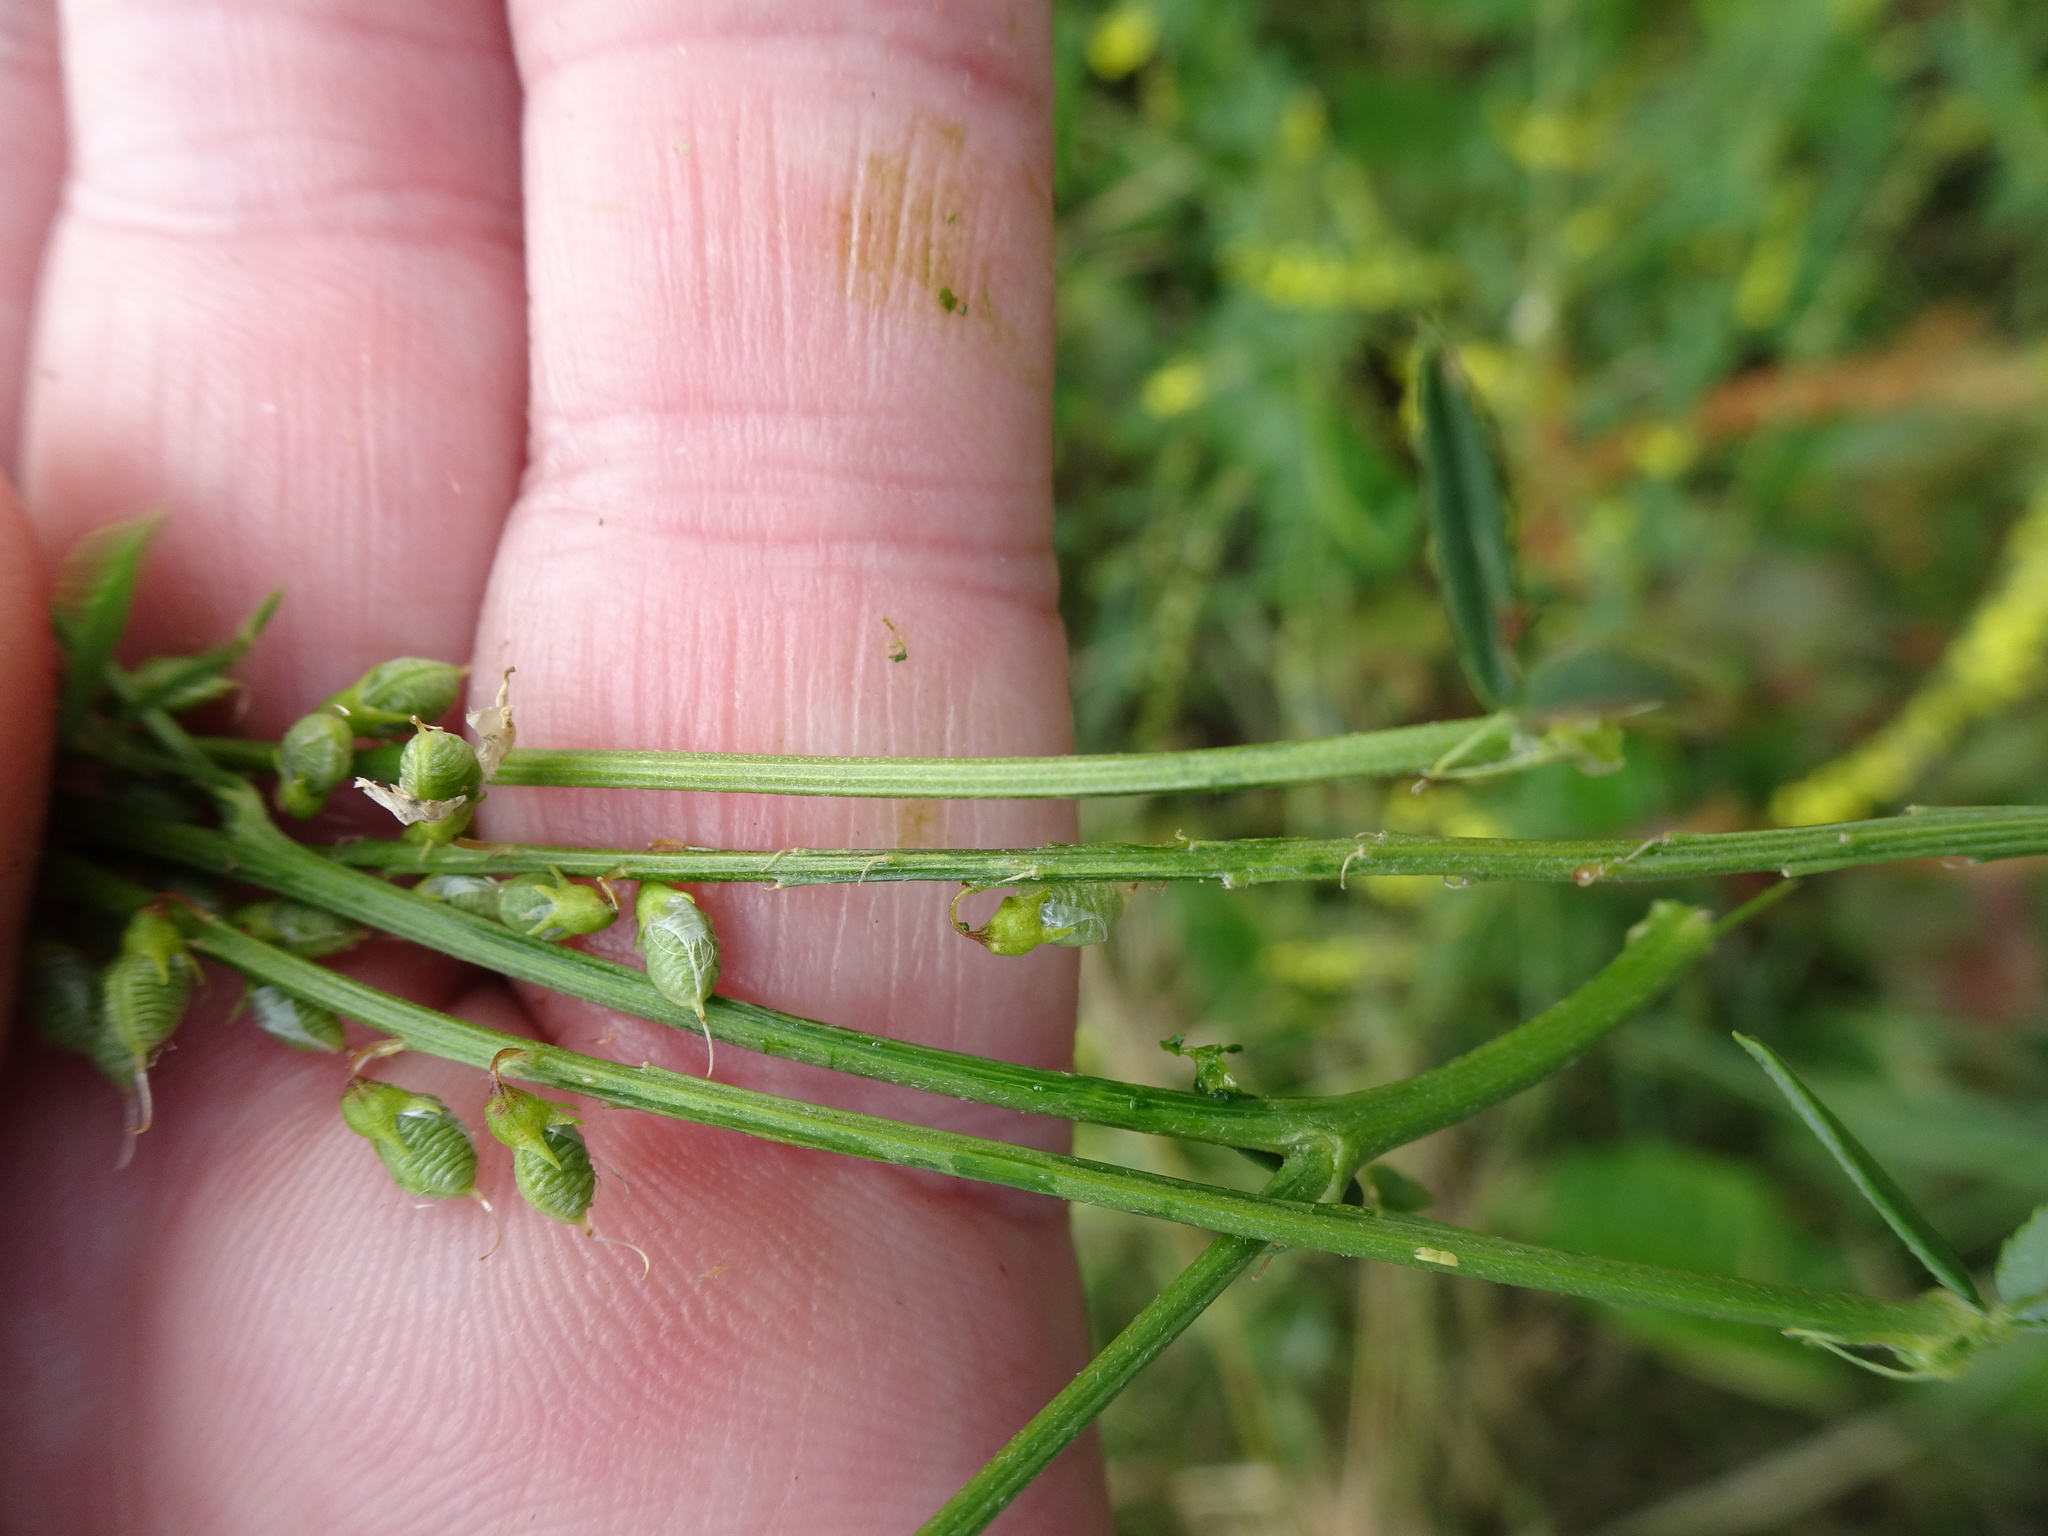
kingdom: Plantae
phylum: Tracheophyta
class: Magnoliopsida
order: Fabales
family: Fabaceae
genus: Melilotus
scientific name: Melilotus officinalis
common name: Sweetclover
